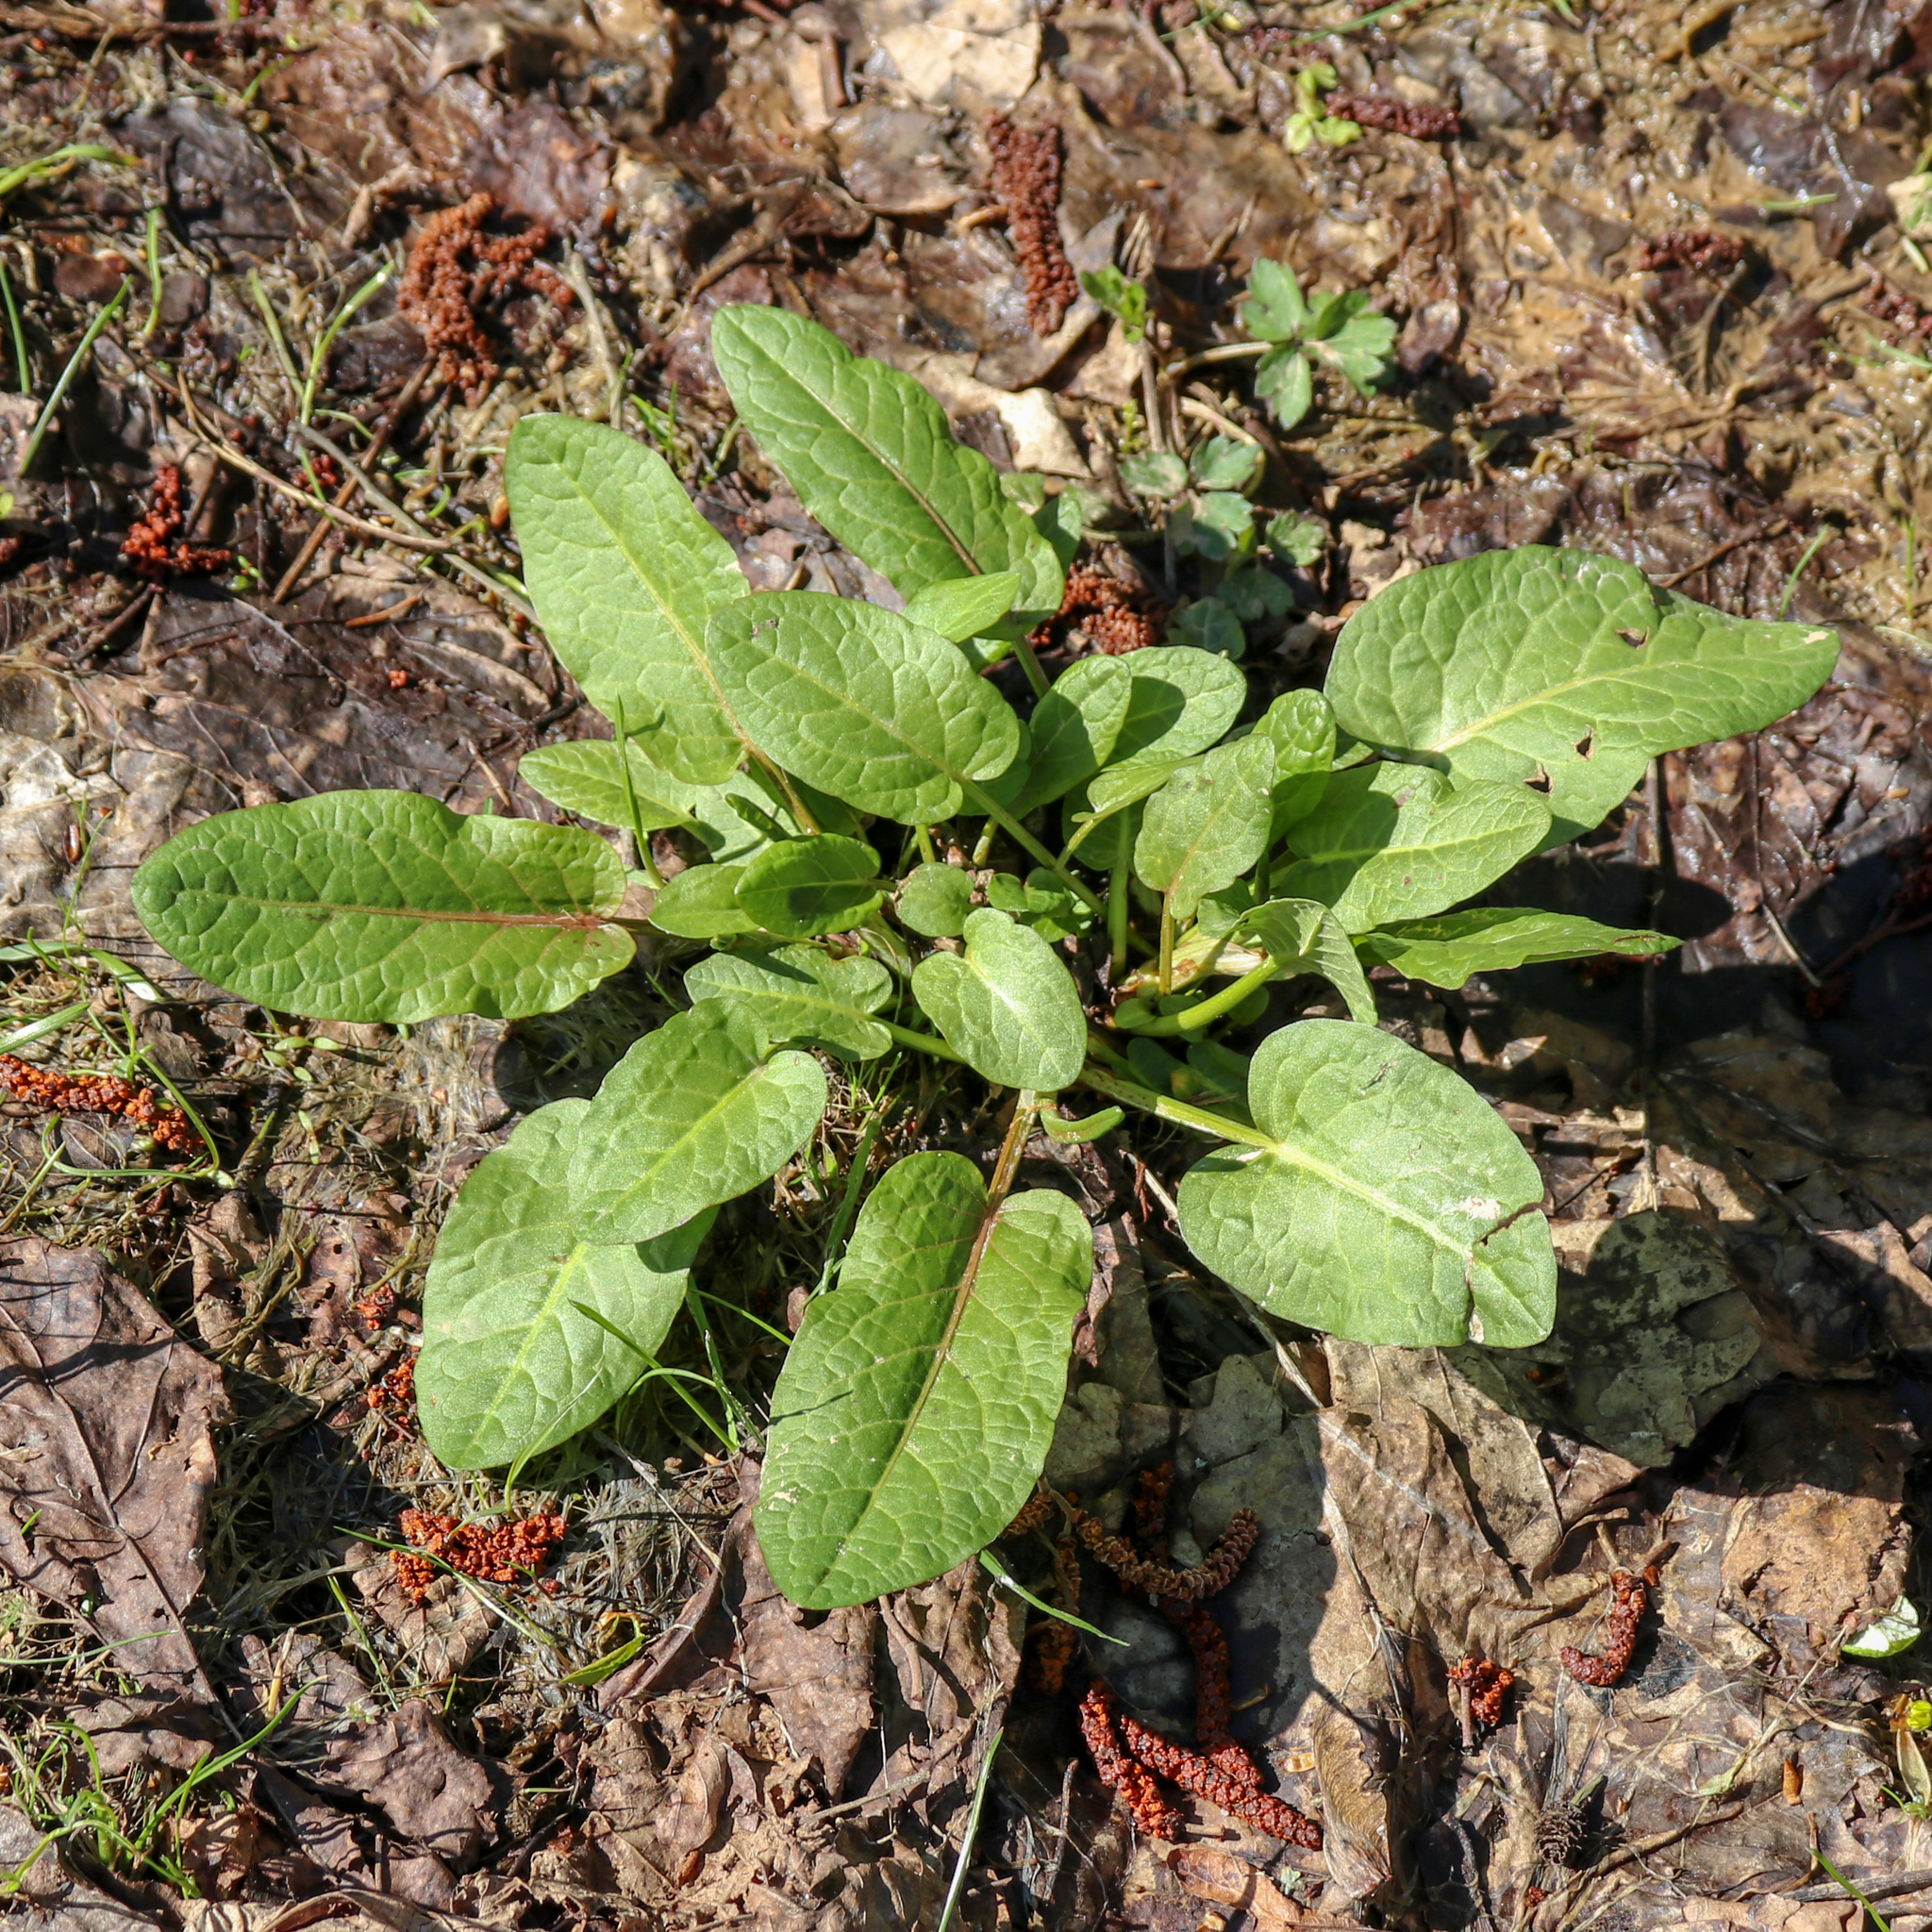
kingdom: Plantae
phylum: Tracheophyta
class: Magnoliopsida
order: Caryophyllales
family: Polygonaceae
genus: Rumex
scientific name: Rumex obtusifolius
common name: Bitter dock
